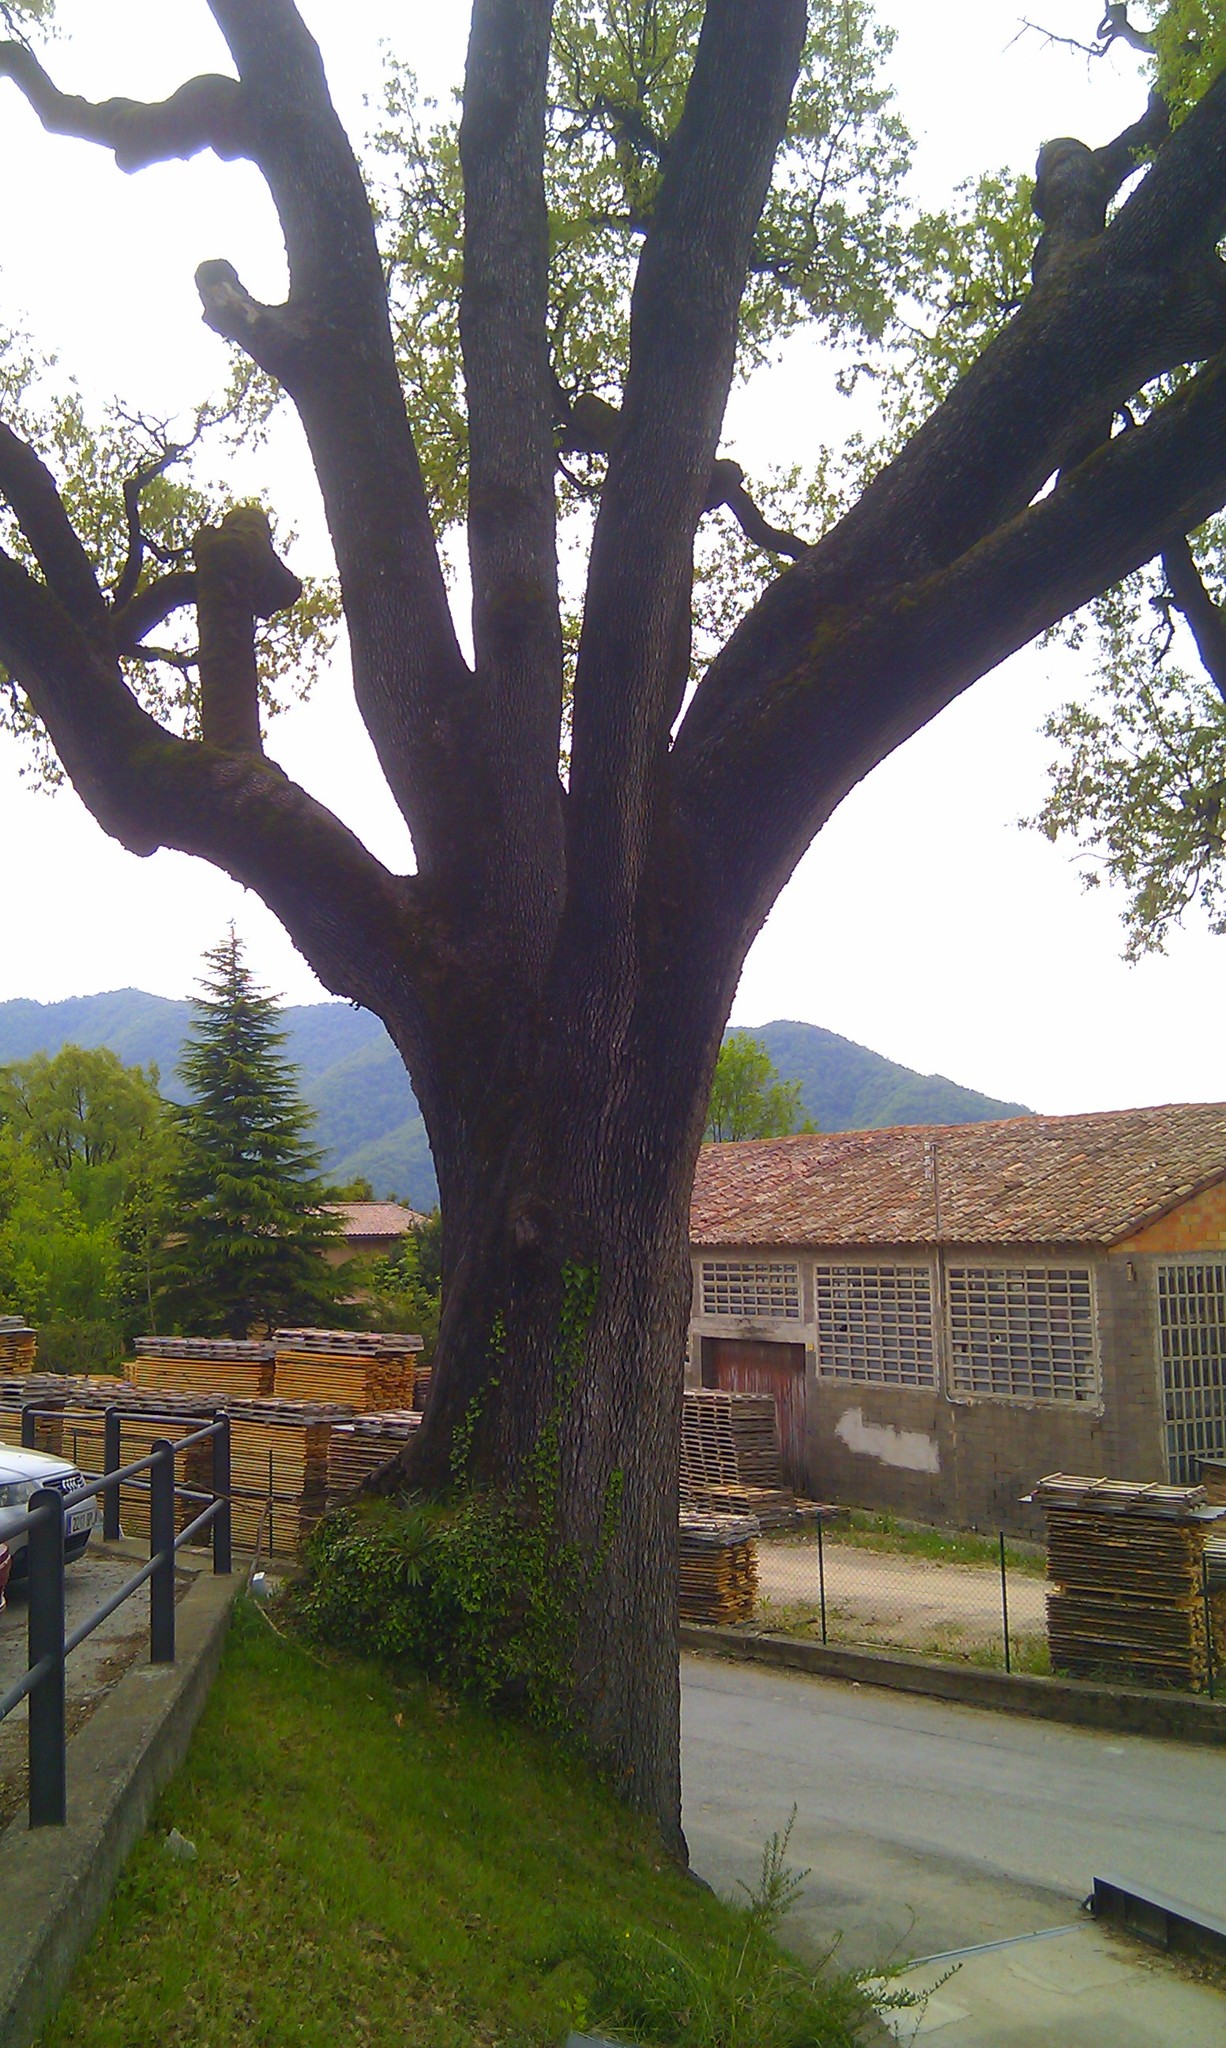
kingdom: Plantae
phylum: Tracheophyta
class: Magnoliopsida
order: Fagales
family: Fagaceae
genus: Quercus
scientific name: Quercus pubescens
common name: Downy oak
